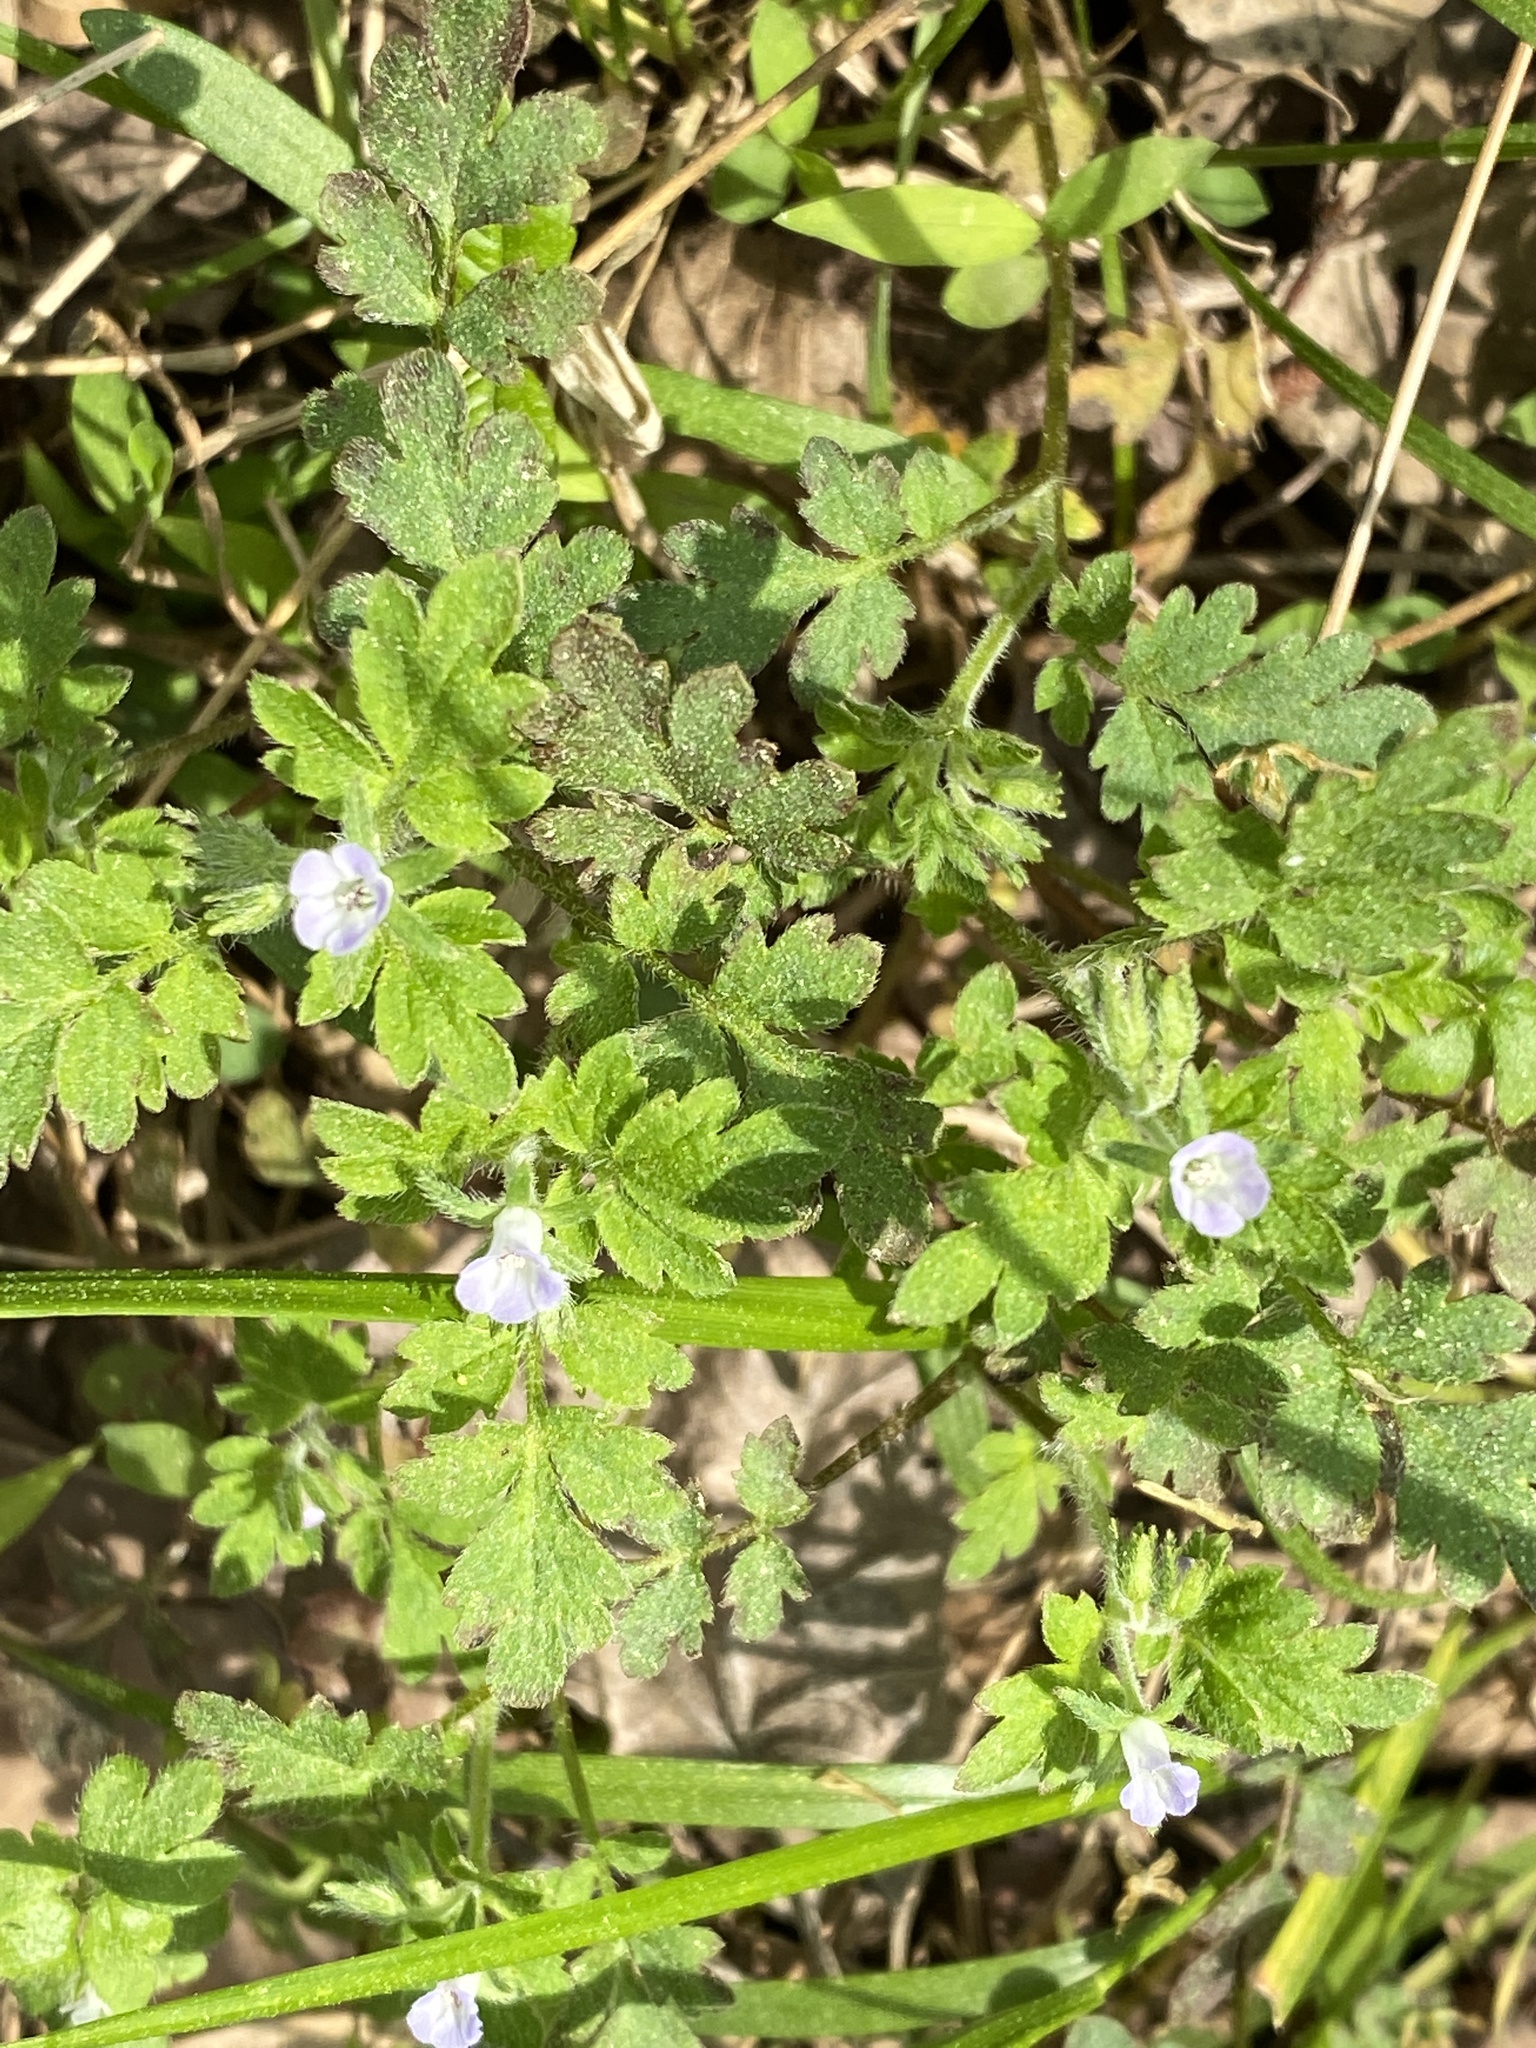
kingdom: Plantae
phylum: Tracheophyta
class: Magnoliopsida
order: Boraginales
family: Hydrophyllaceae
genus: Phacelia
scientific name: Phacelia covillei
